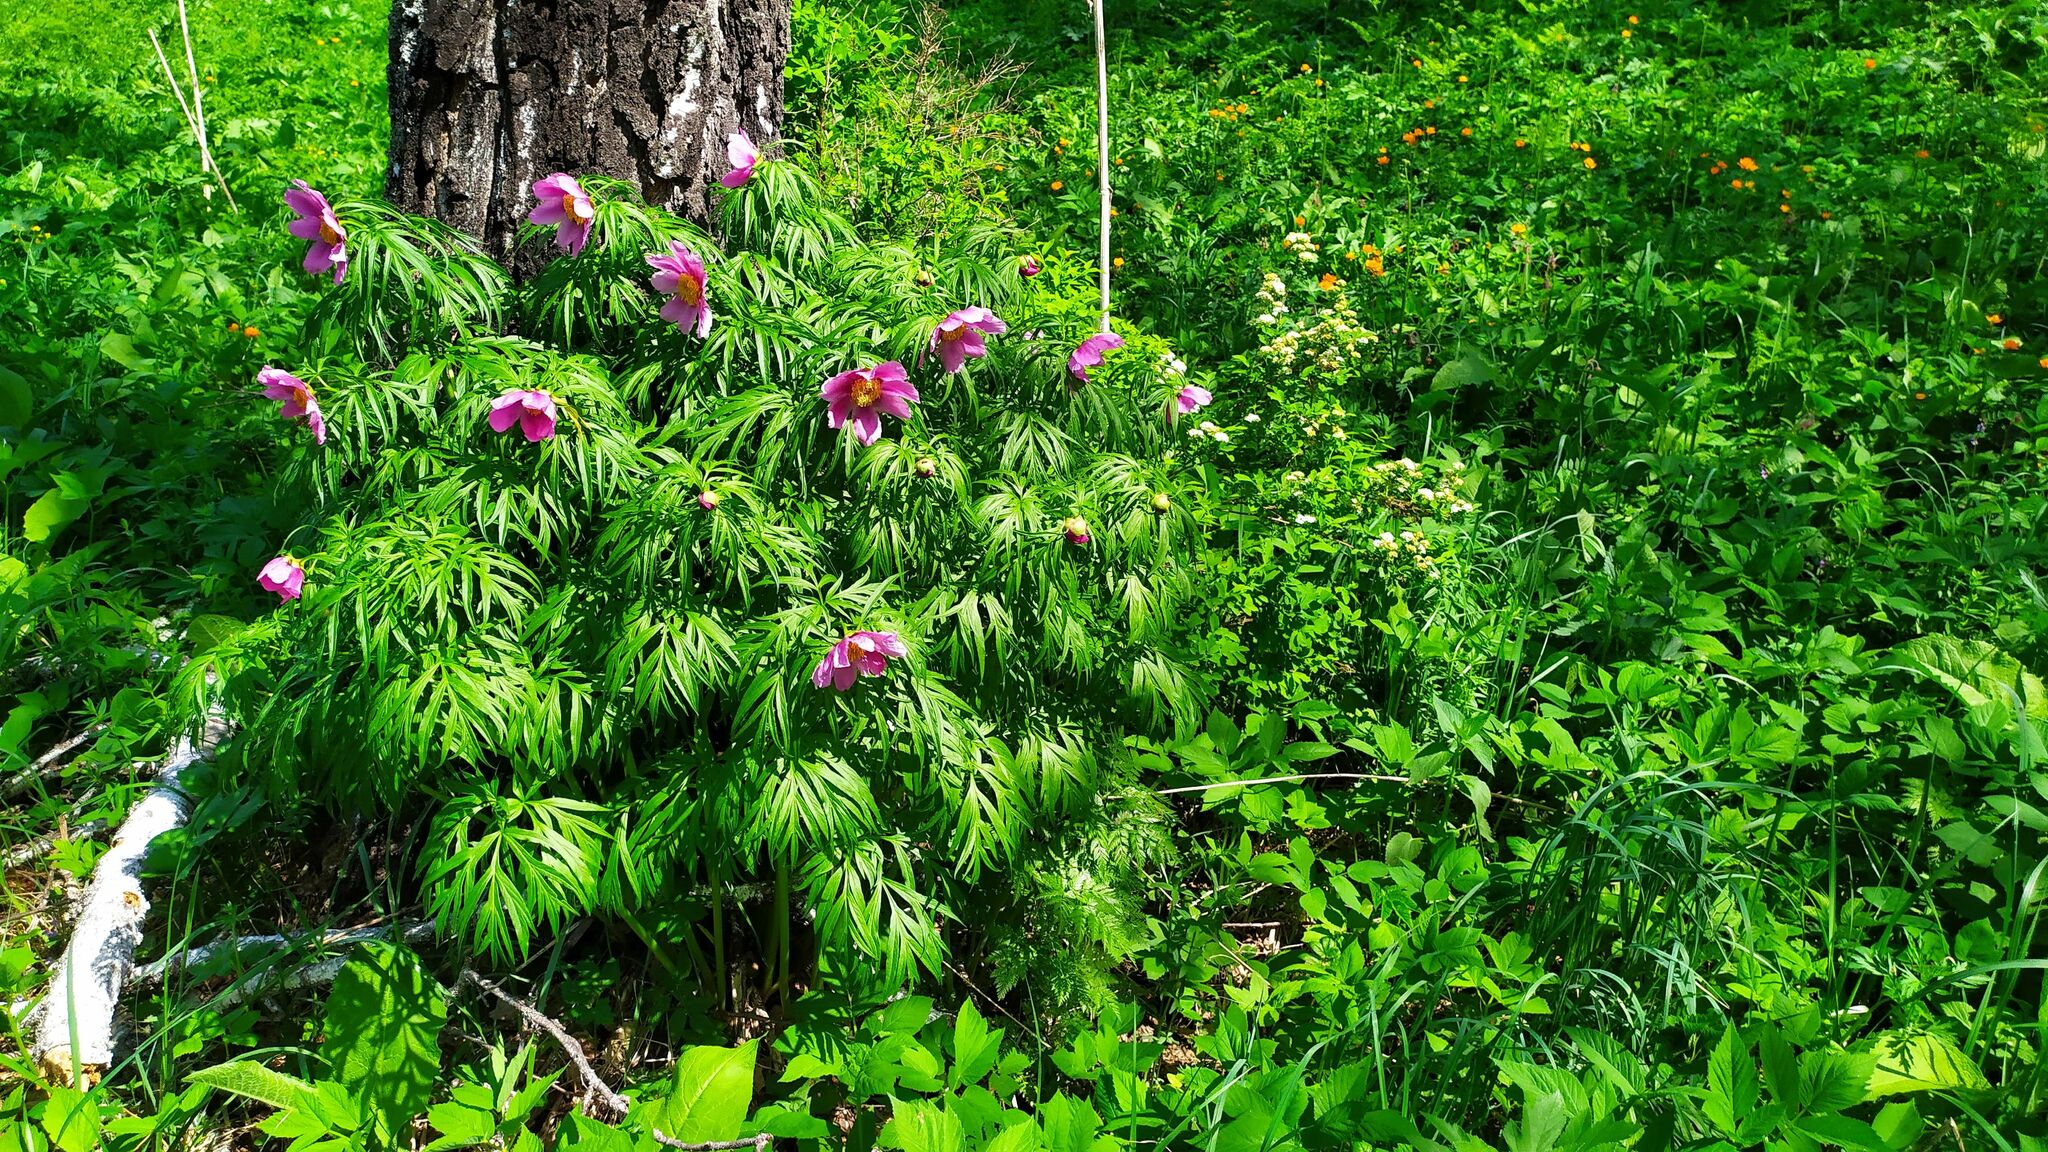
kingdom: Plantae
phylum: Tracheophyta
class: Magnoliopsida
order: Saxifragales
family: Paeoniaceae
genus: Paeonia
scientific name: Paeonia anomala
